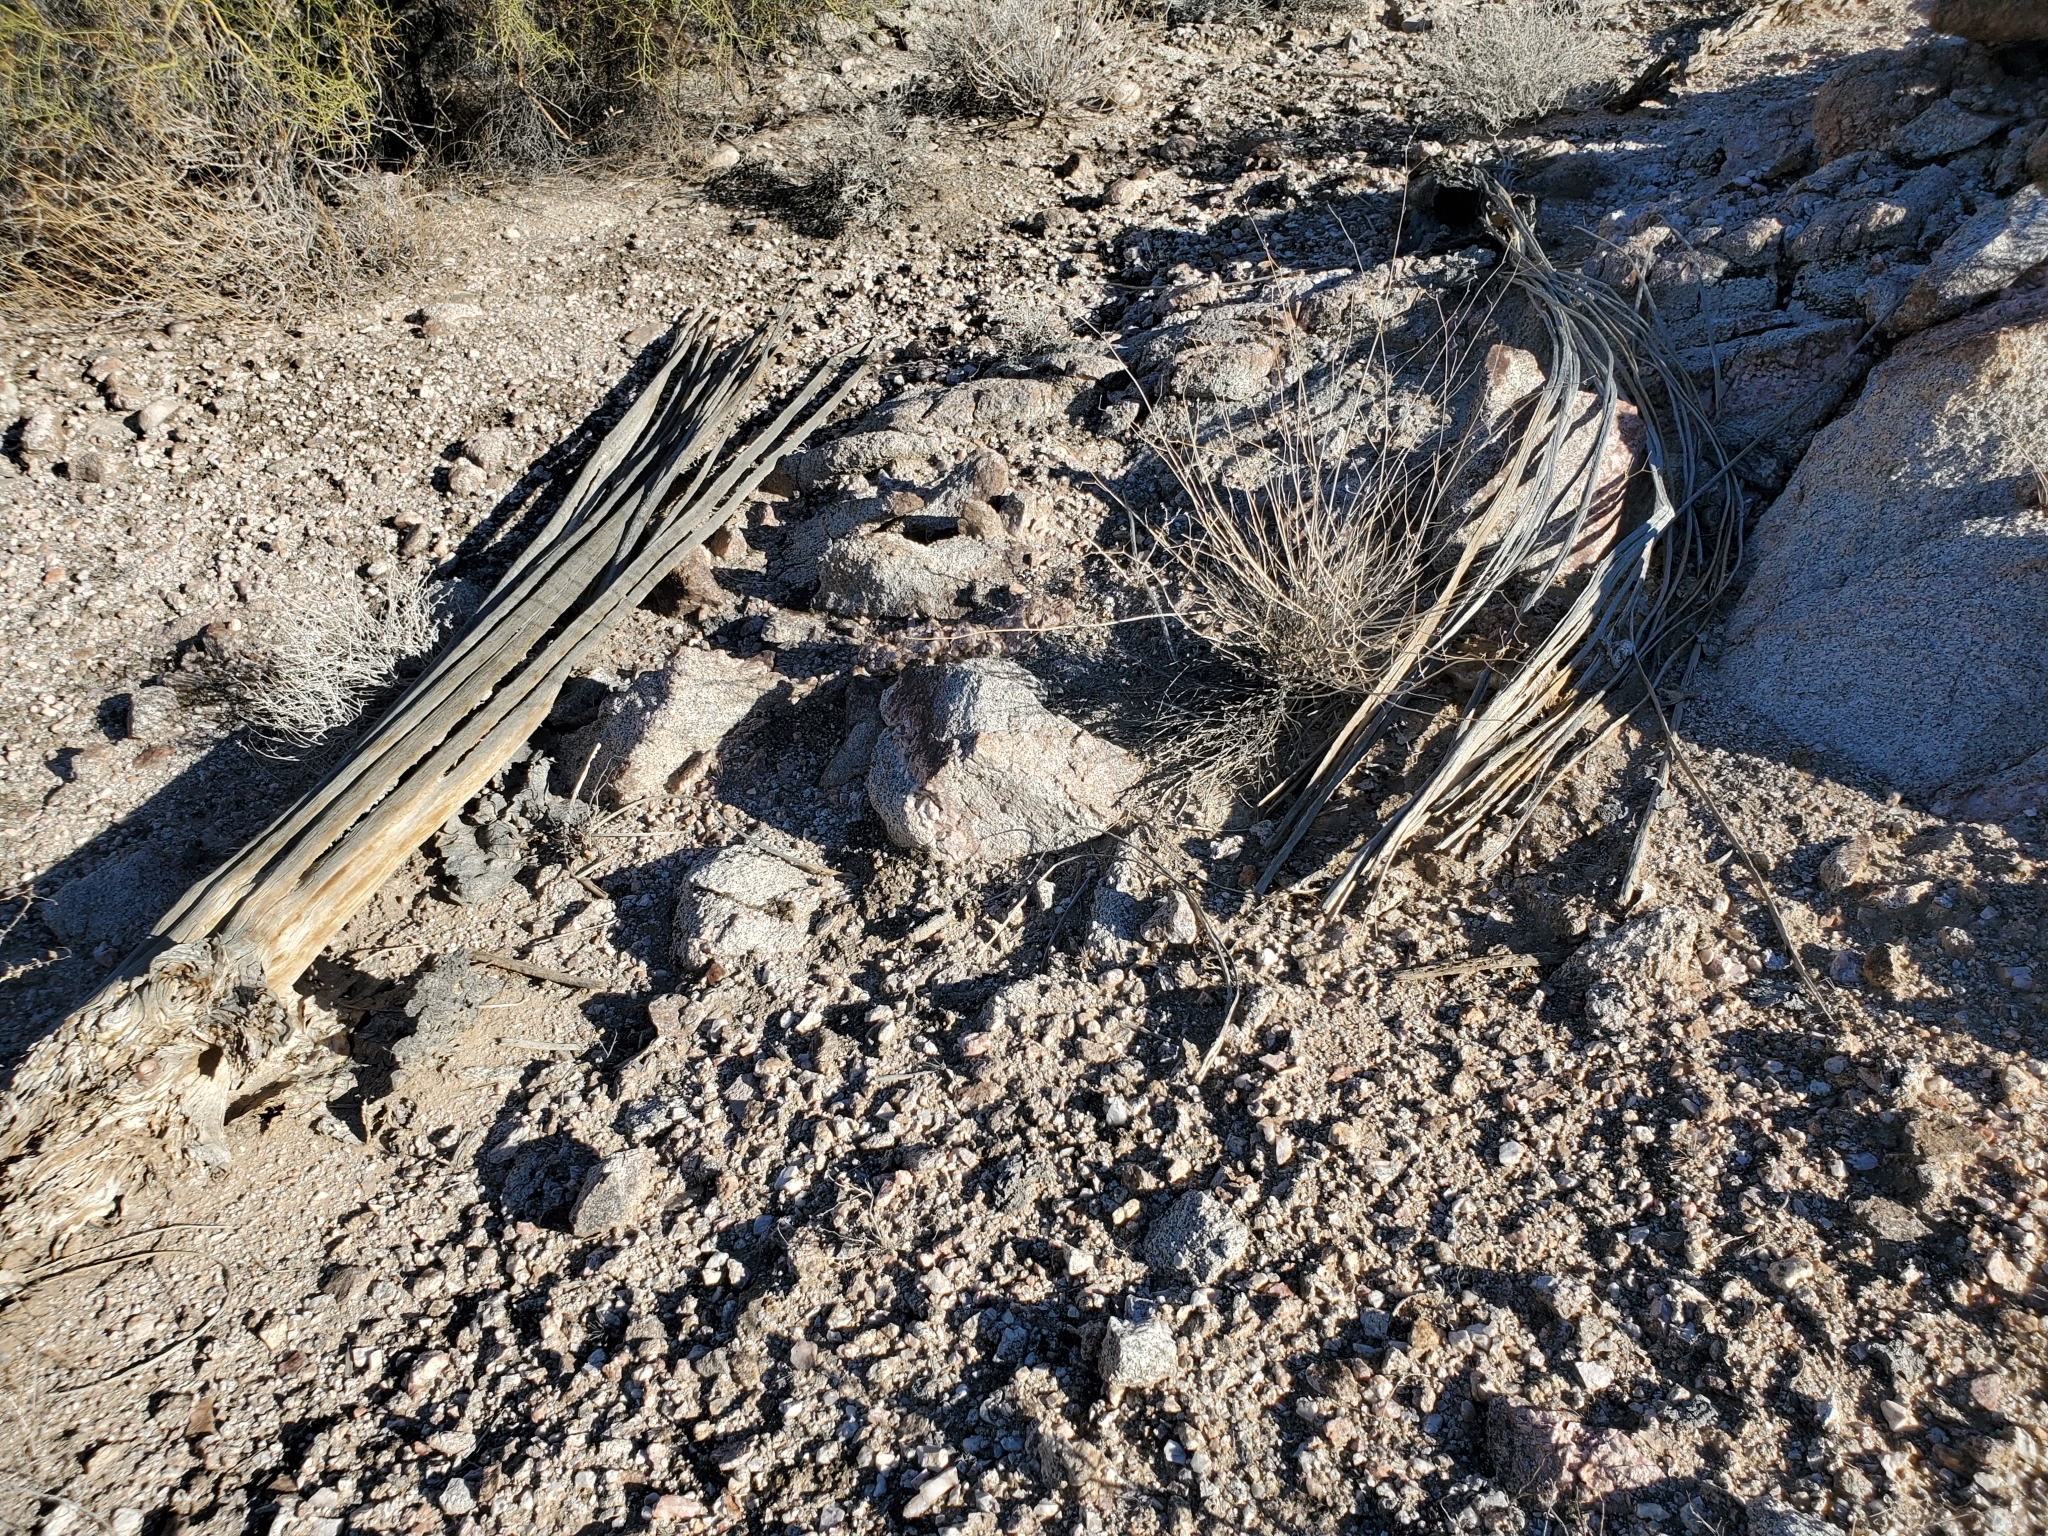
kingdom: Plantae
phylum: Tracheophyta
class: Magnoliopsida
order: Caryophyllales
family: Cactaceae
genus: Carnegiea
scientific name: Carnegiea gigantea
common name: Saguaro
